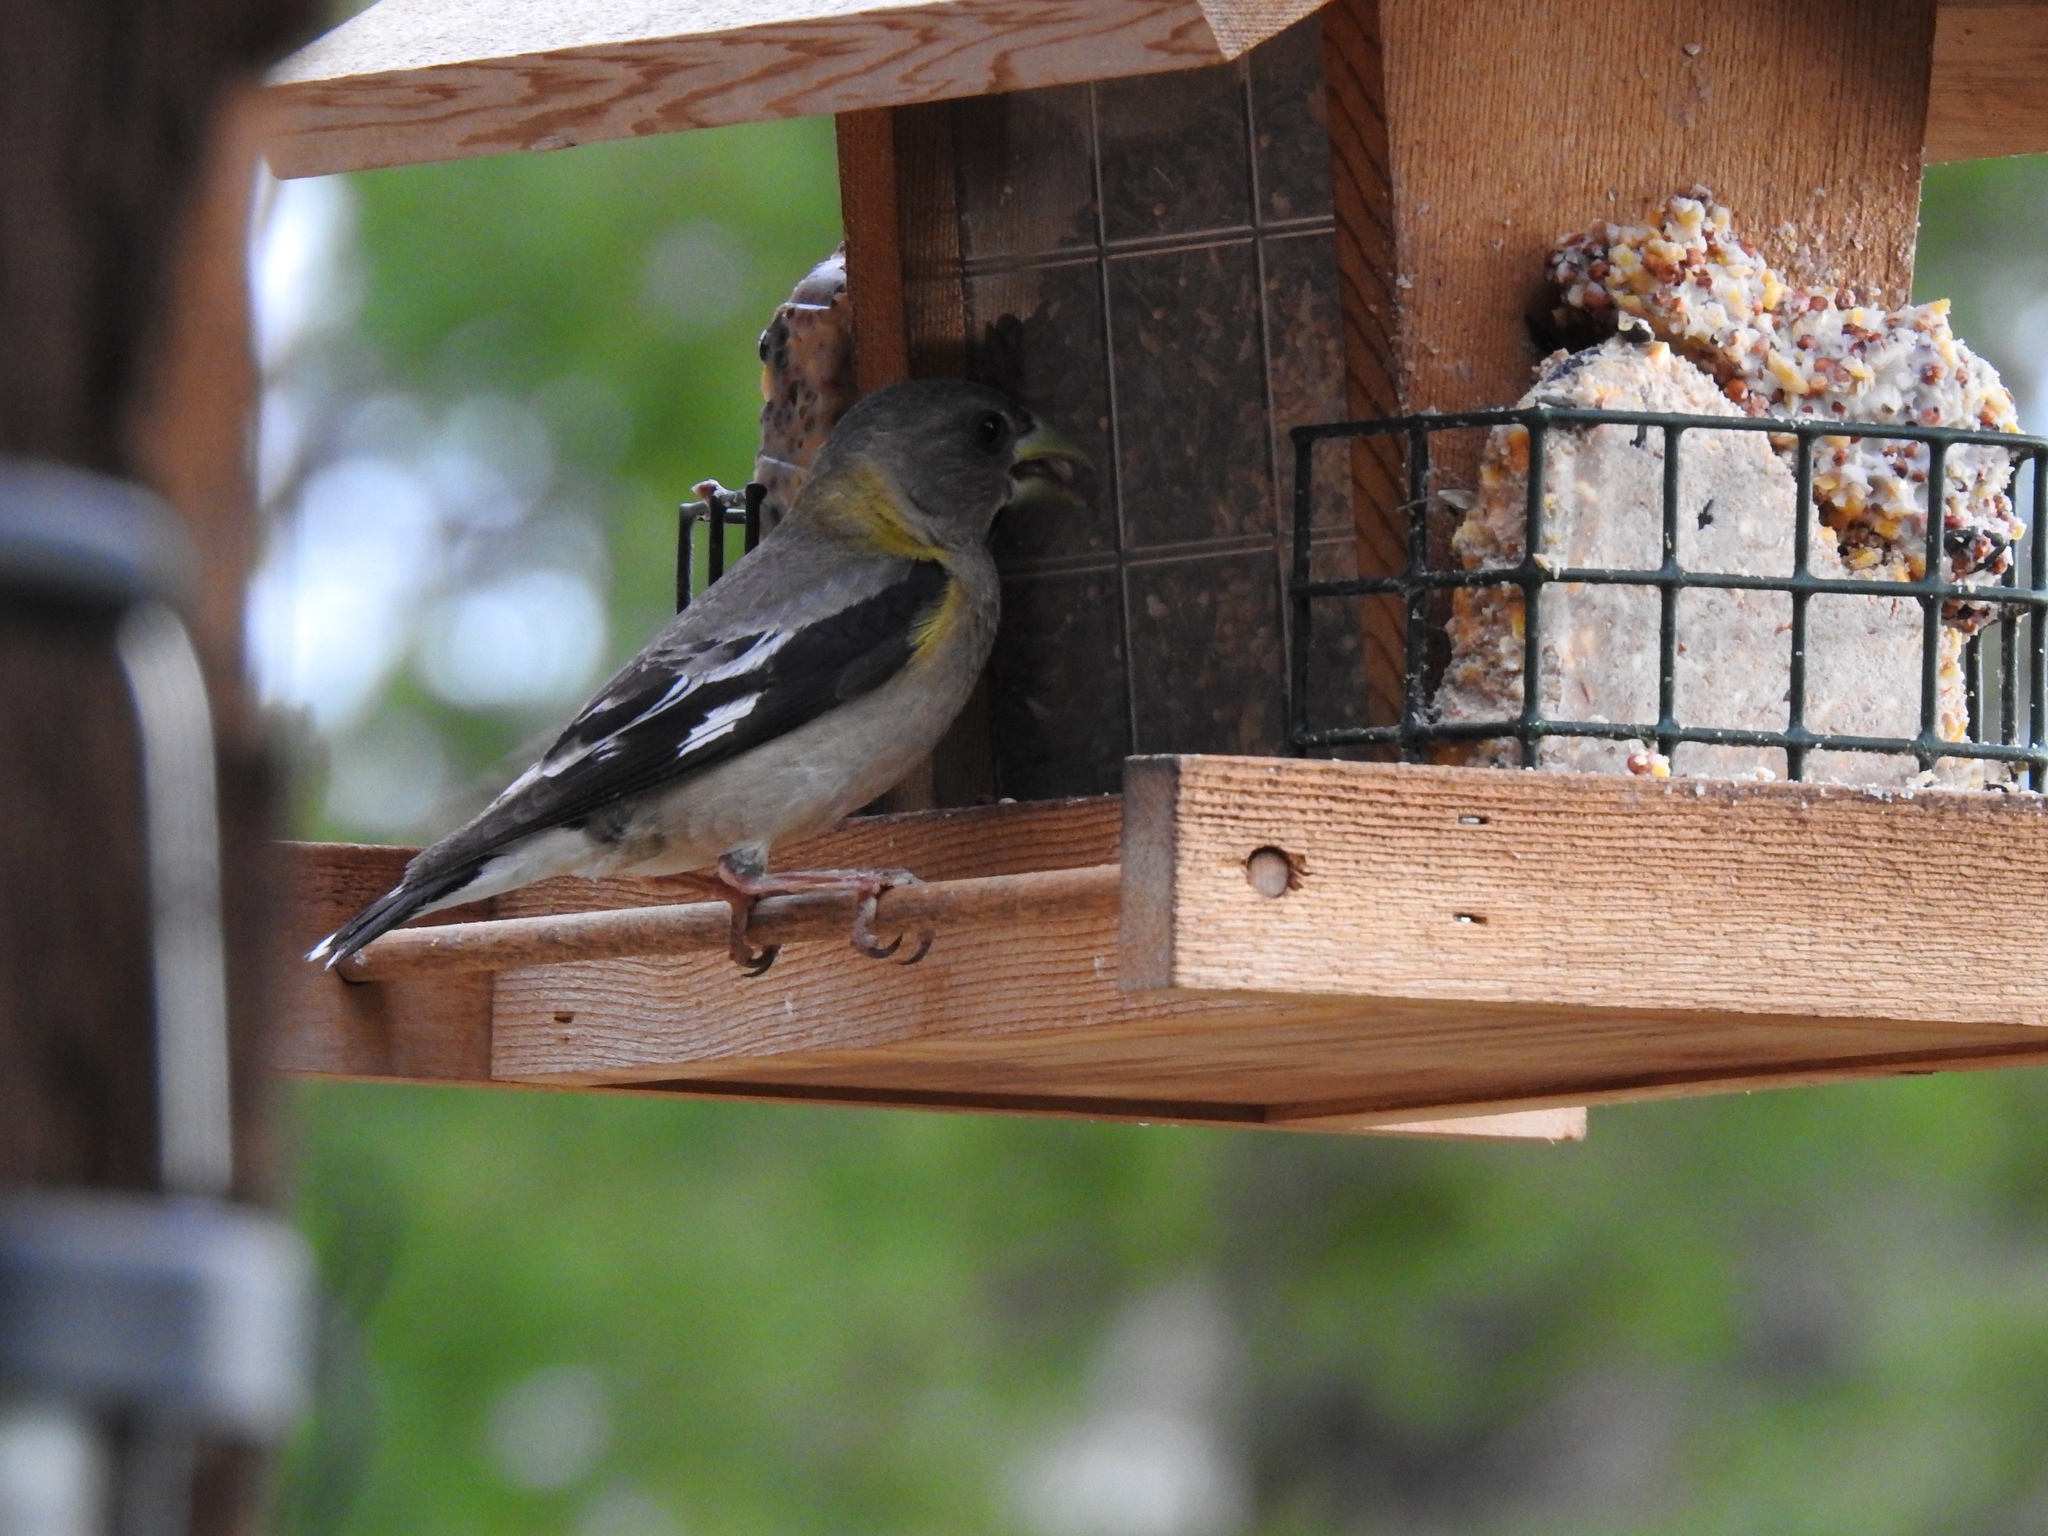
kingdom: Animalia
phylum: Chordata
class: Aves
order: Passeriformes
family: Fringillidae
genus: Hesperiphona
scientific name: Hesperiphona vespertina
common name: Evening grosbeak
